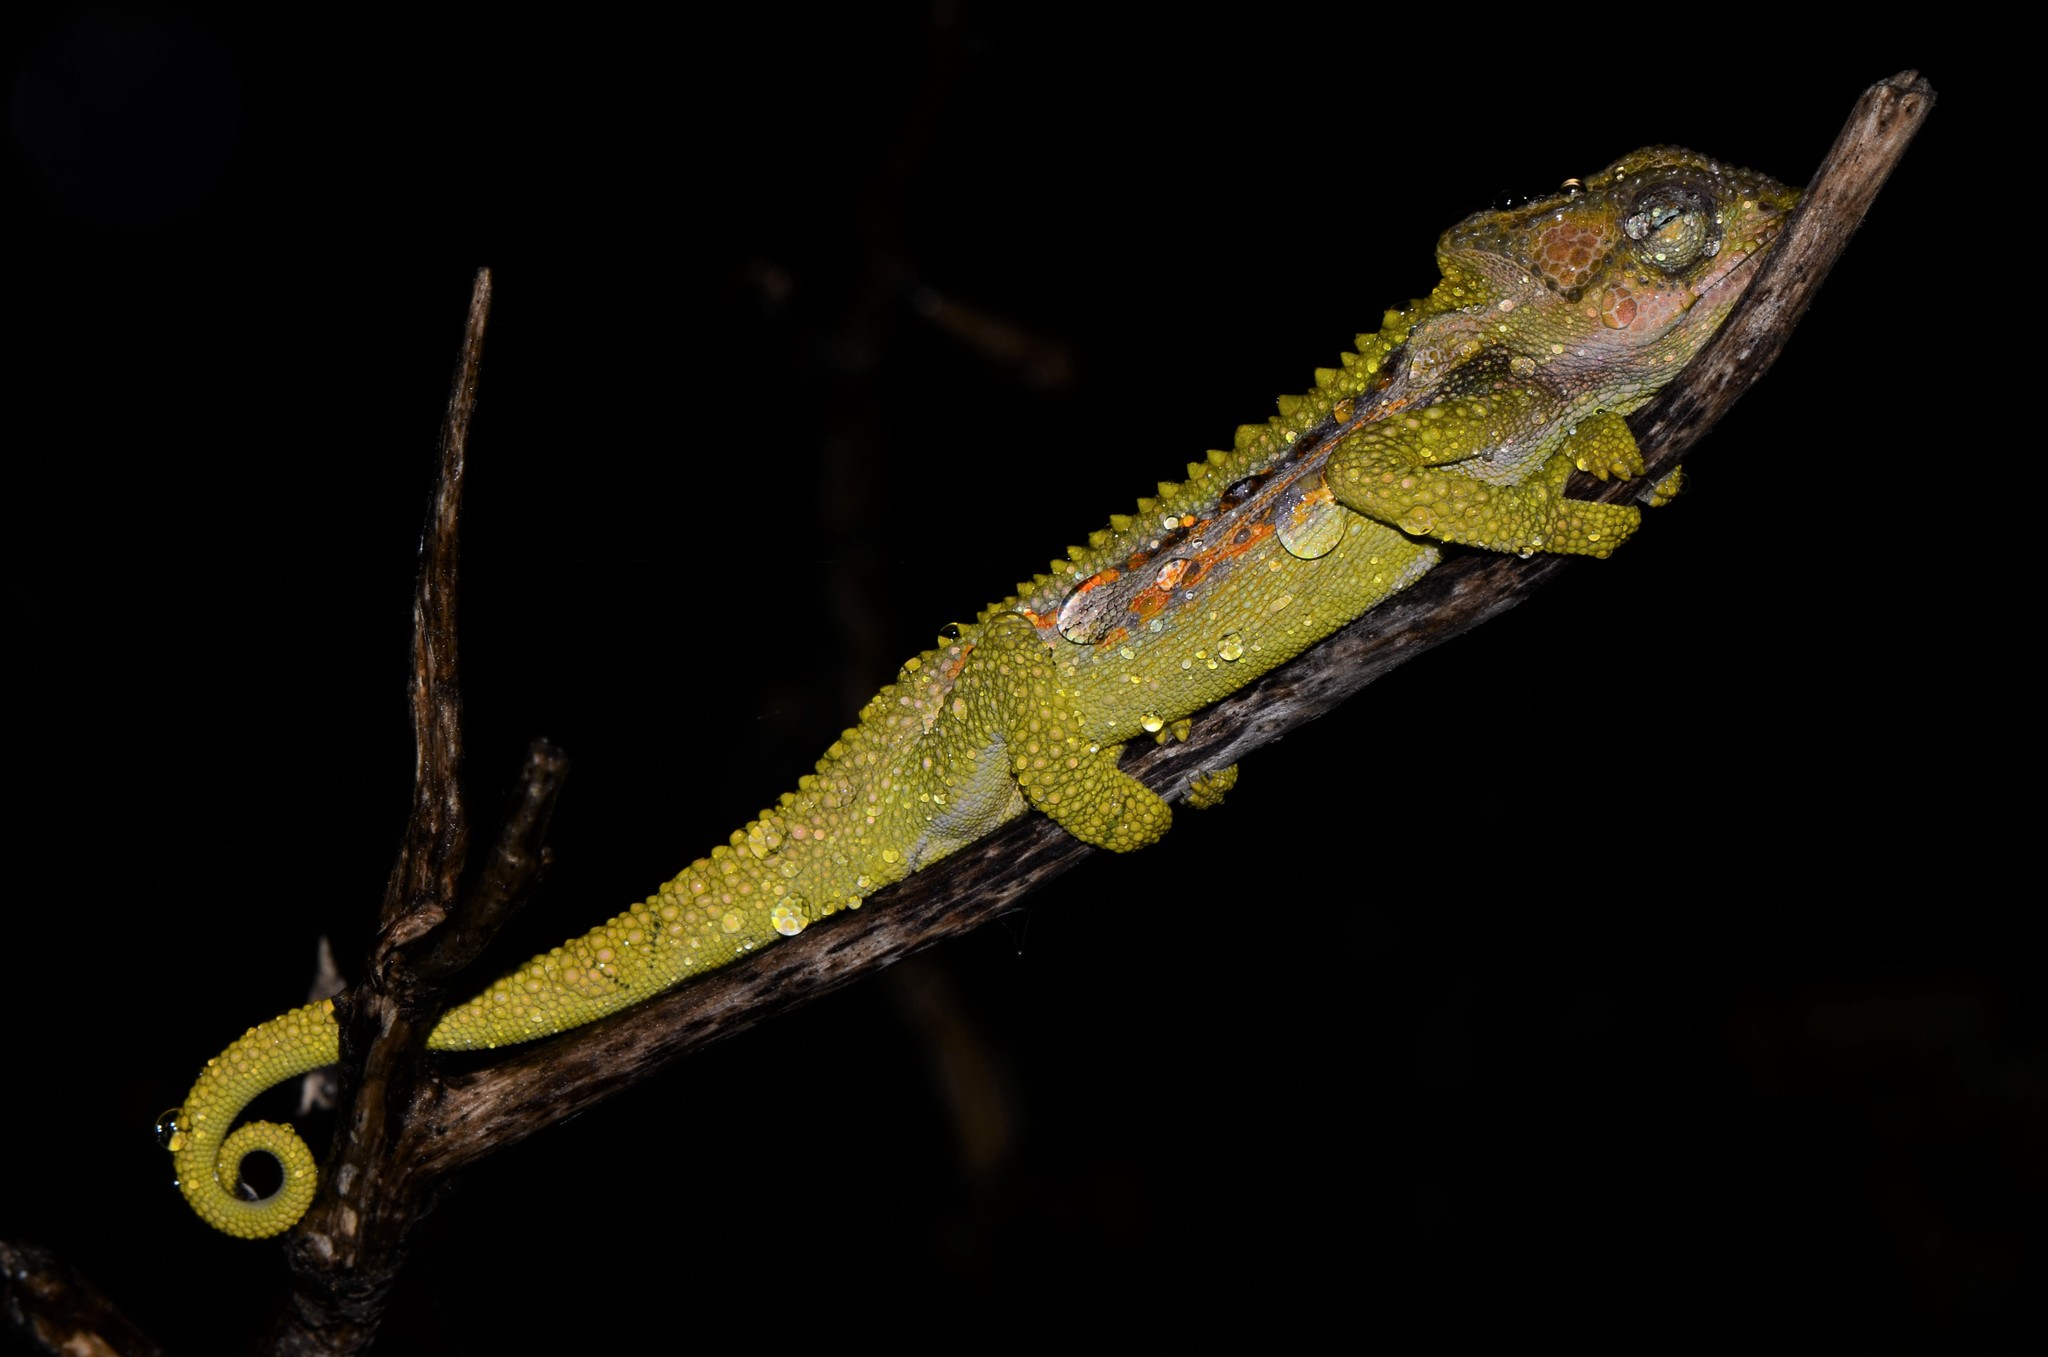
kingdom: Animalia
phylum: Chordata
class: Squamata
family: Chamaeleonidae
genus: Bradypodion
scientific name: Bradypodion pumilum
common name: Cape dwarf chameleon
